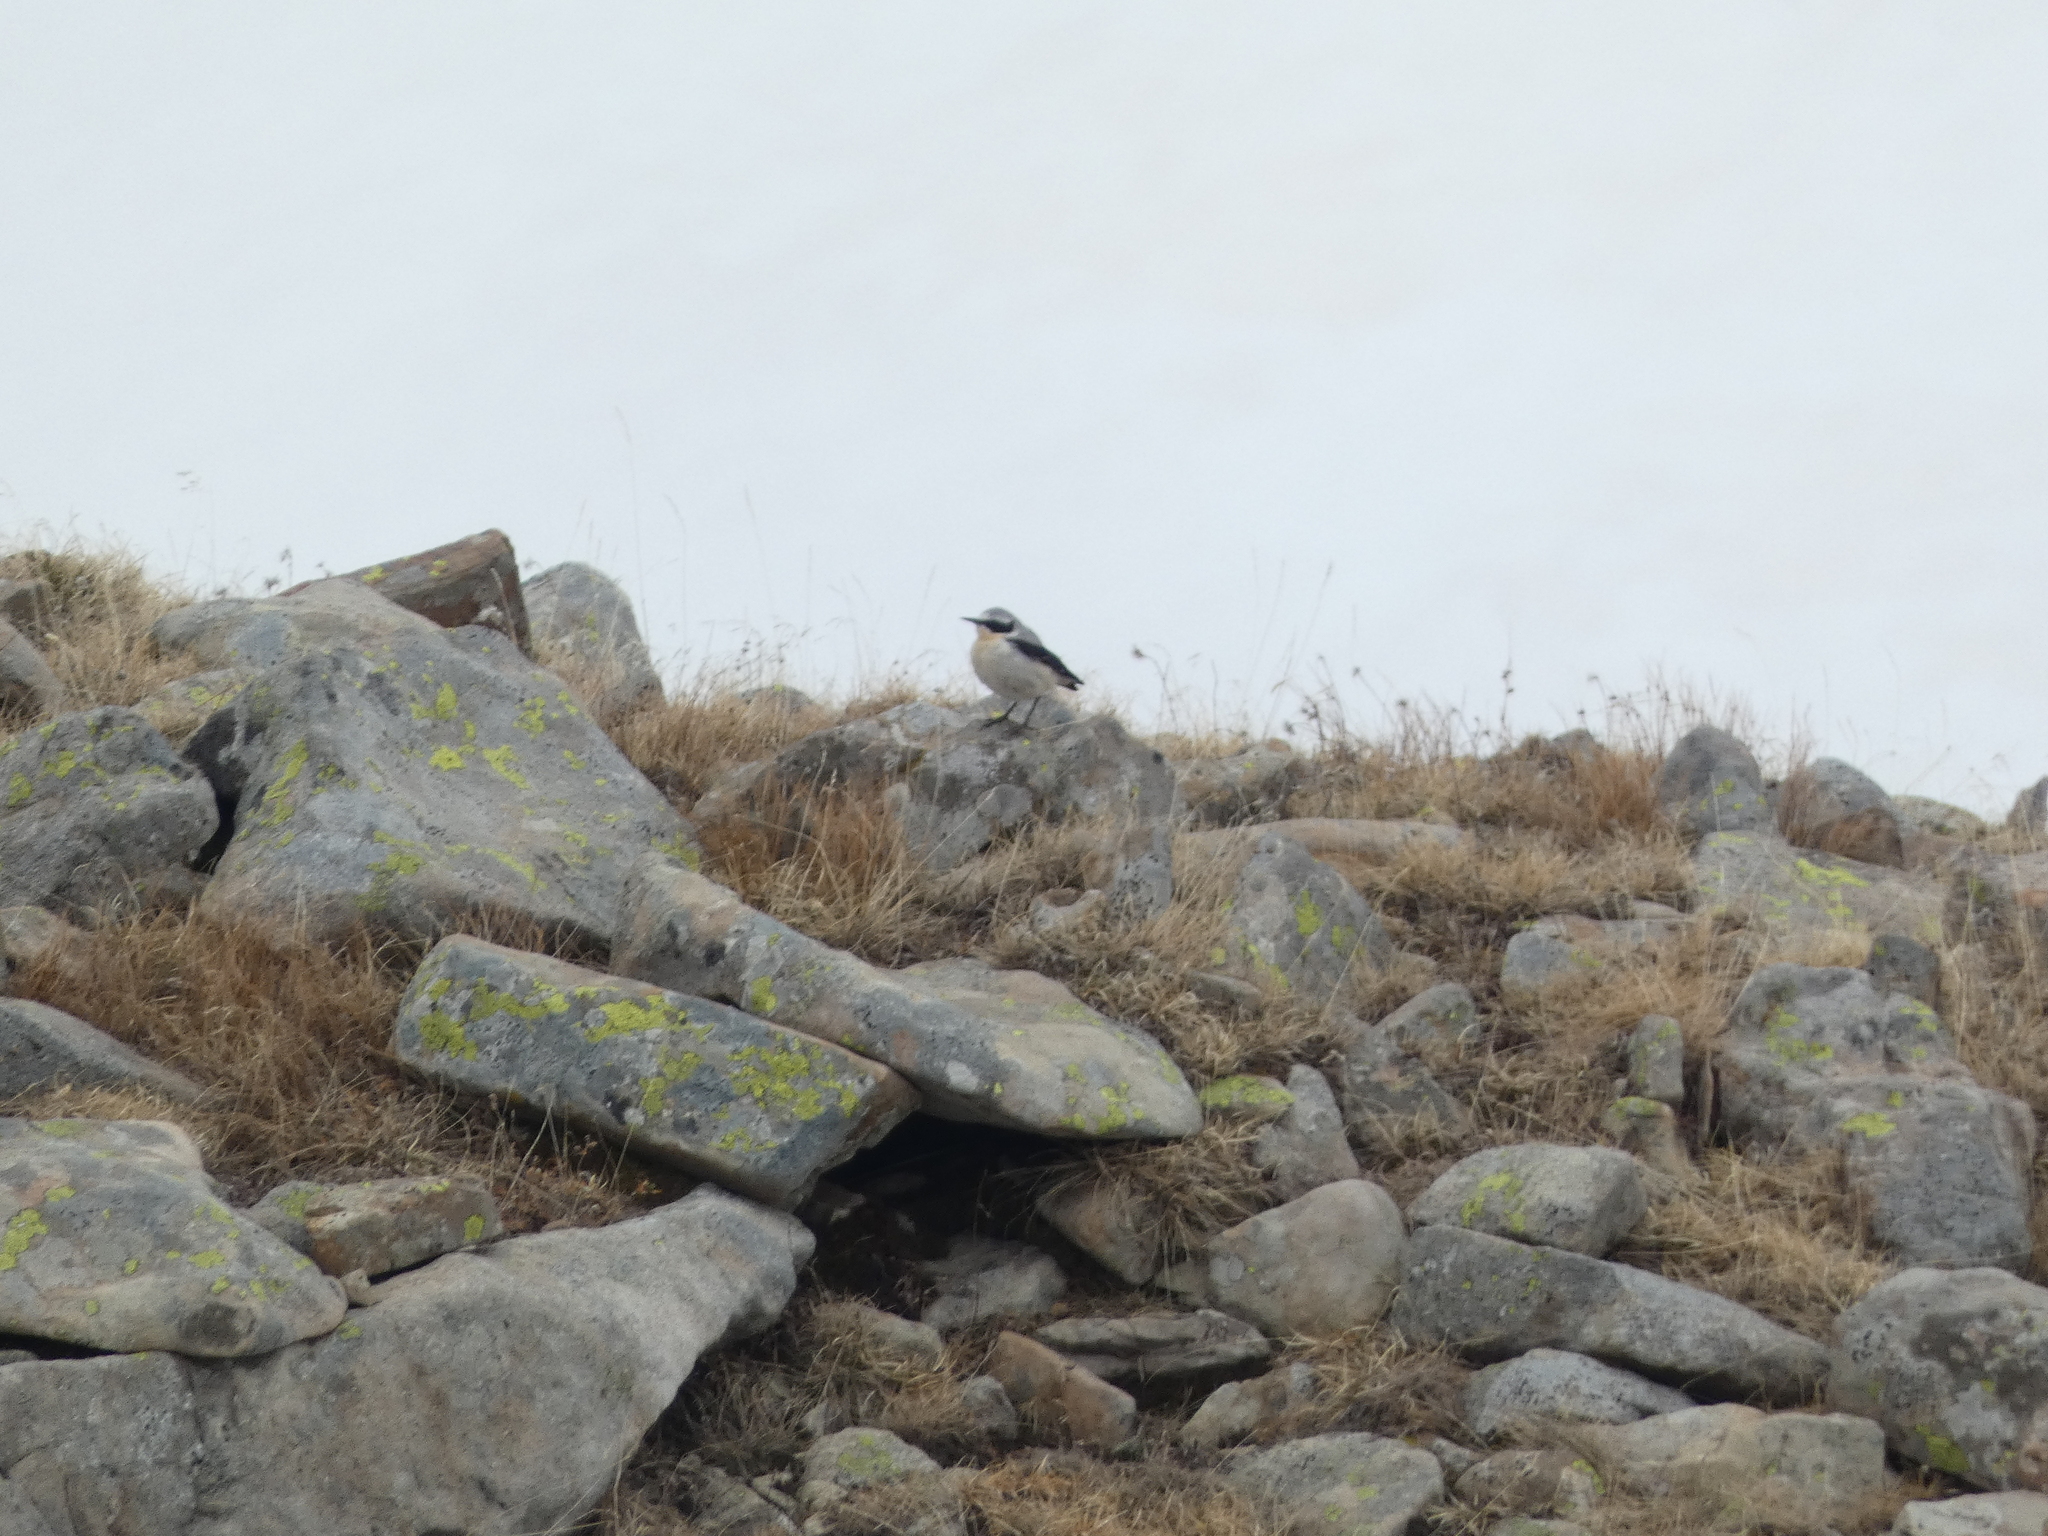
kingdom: Animalia
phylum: Chordata
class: Aves
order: Passeriformes
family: Muscicapidae
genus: Oenanthe
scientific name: Oenanthe oenanthe
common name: Northern wheatear
